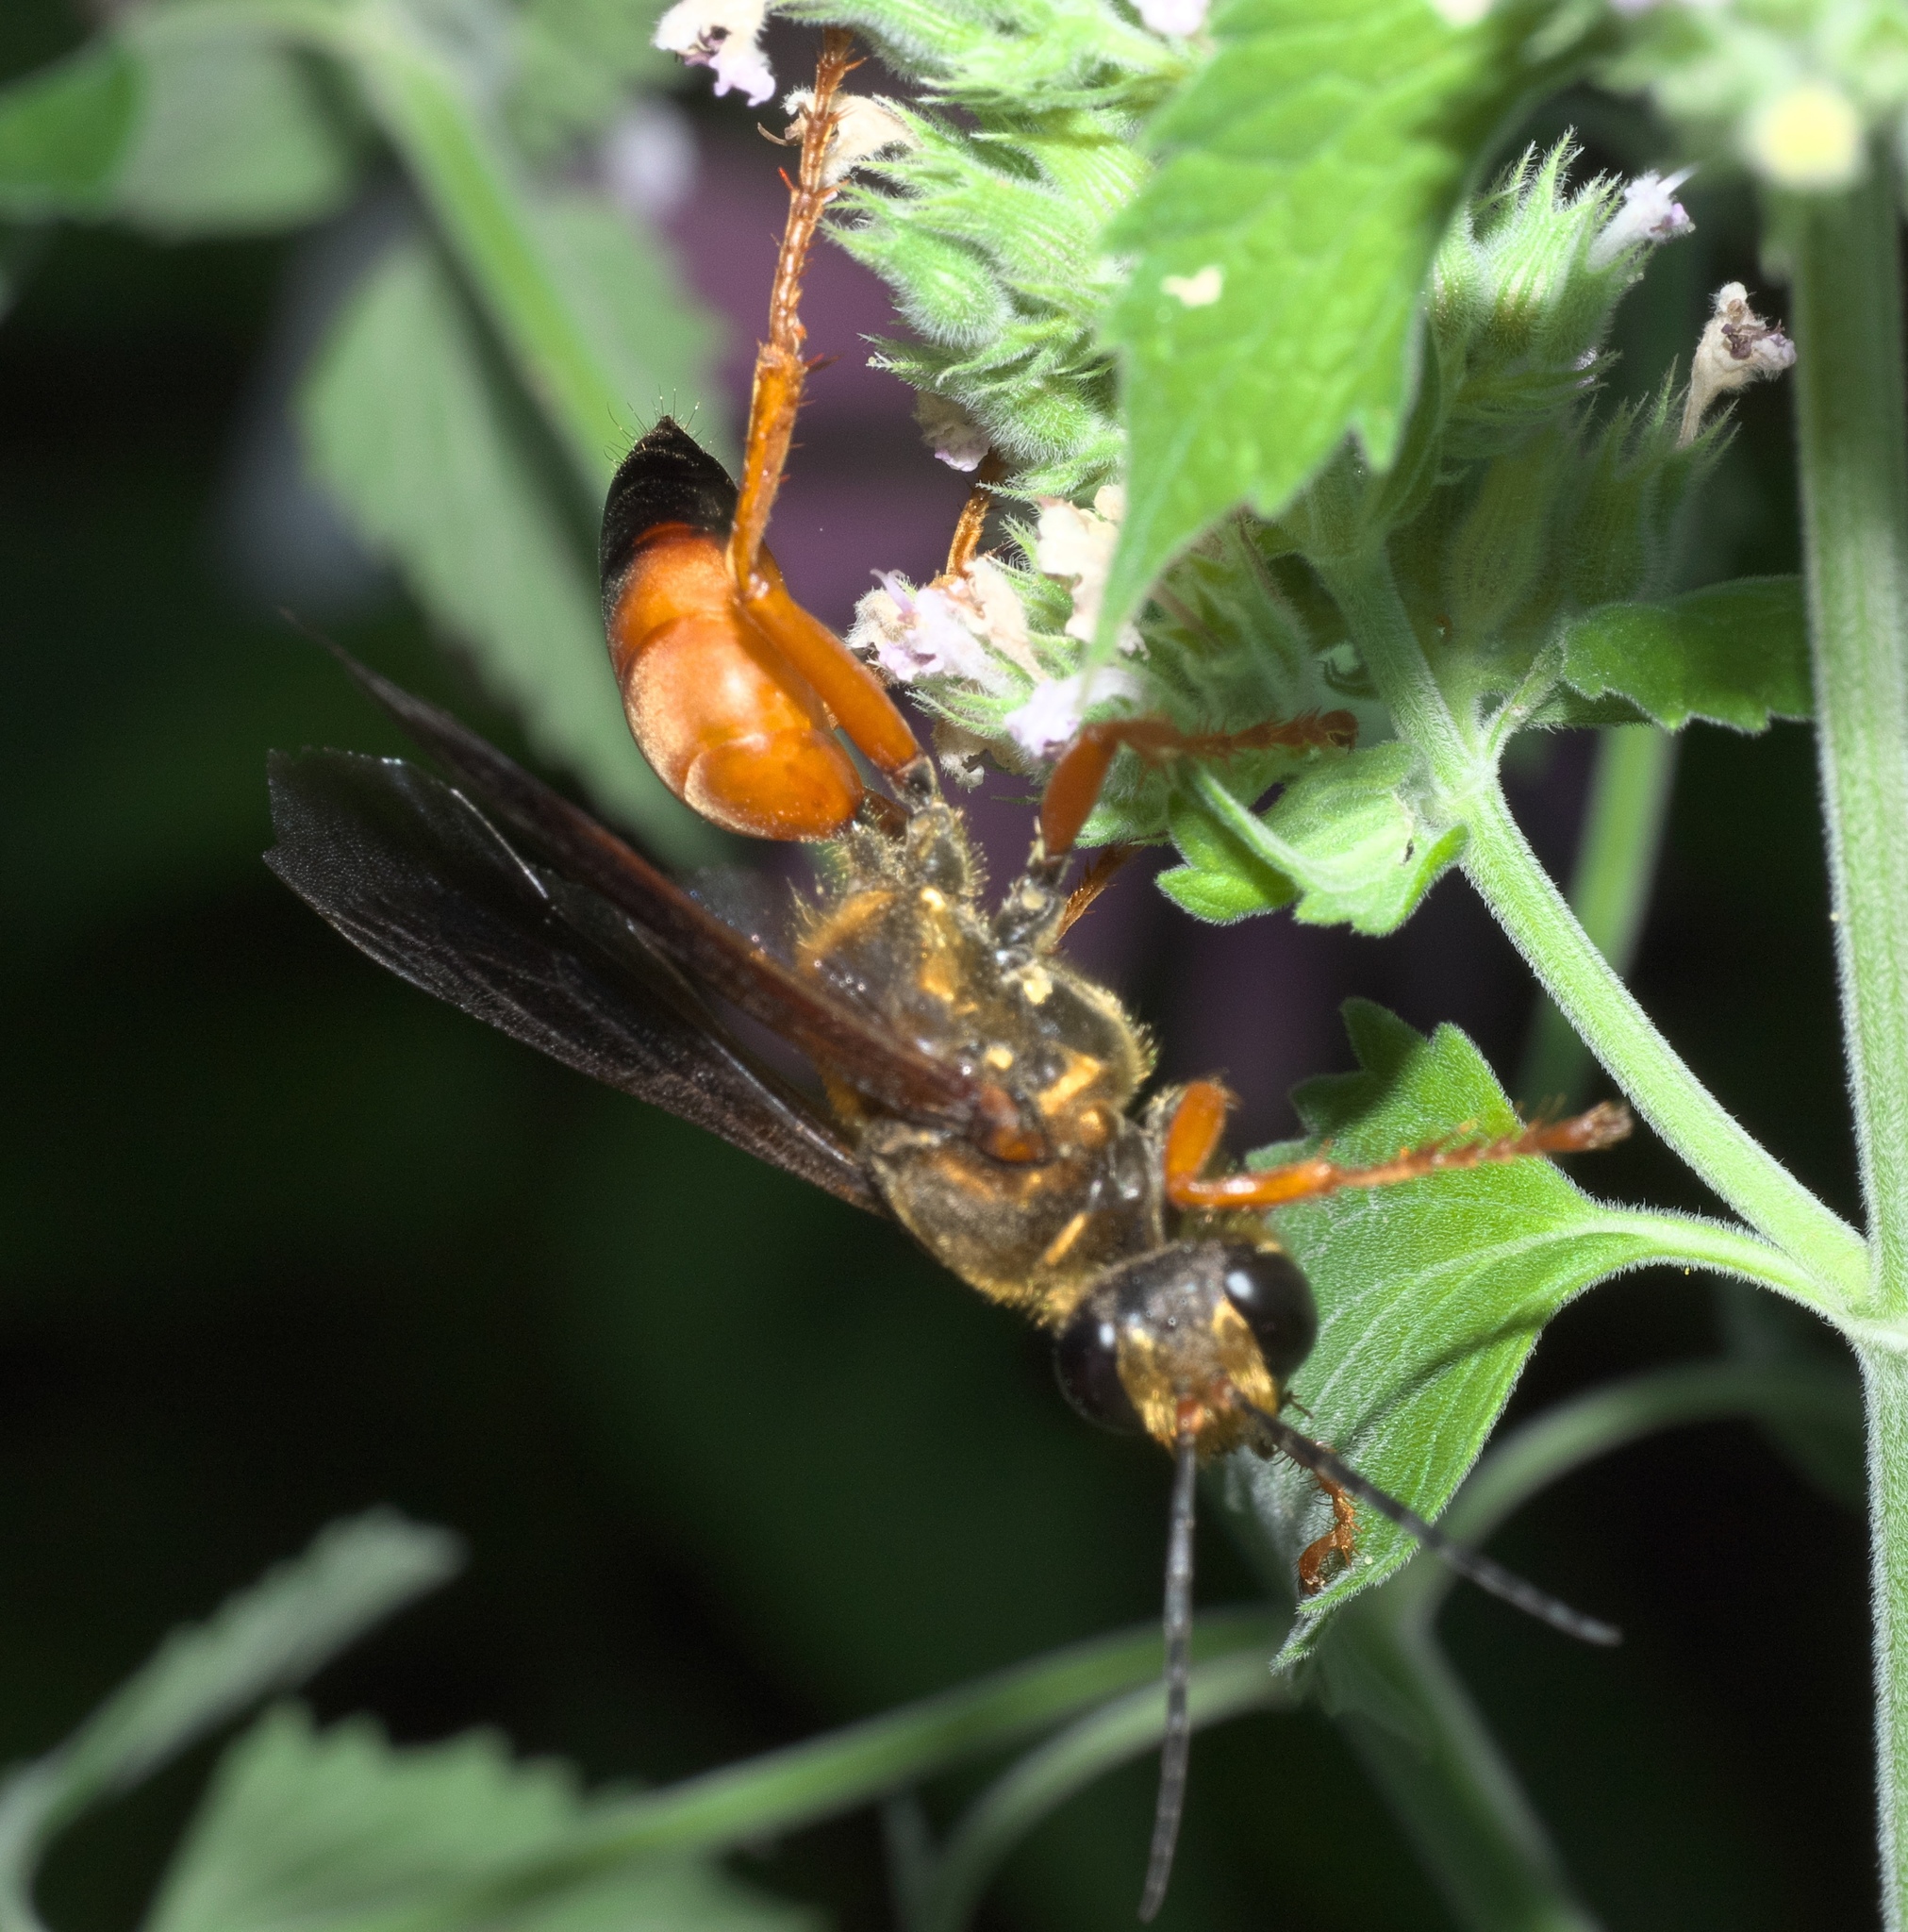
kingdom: Animalia
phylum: Arthropoda
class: Insecta
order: Hymenoptera
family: Sphecidae
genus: Sphex
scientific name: Sphex ichneumoneus
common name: Great golden digger wasp
